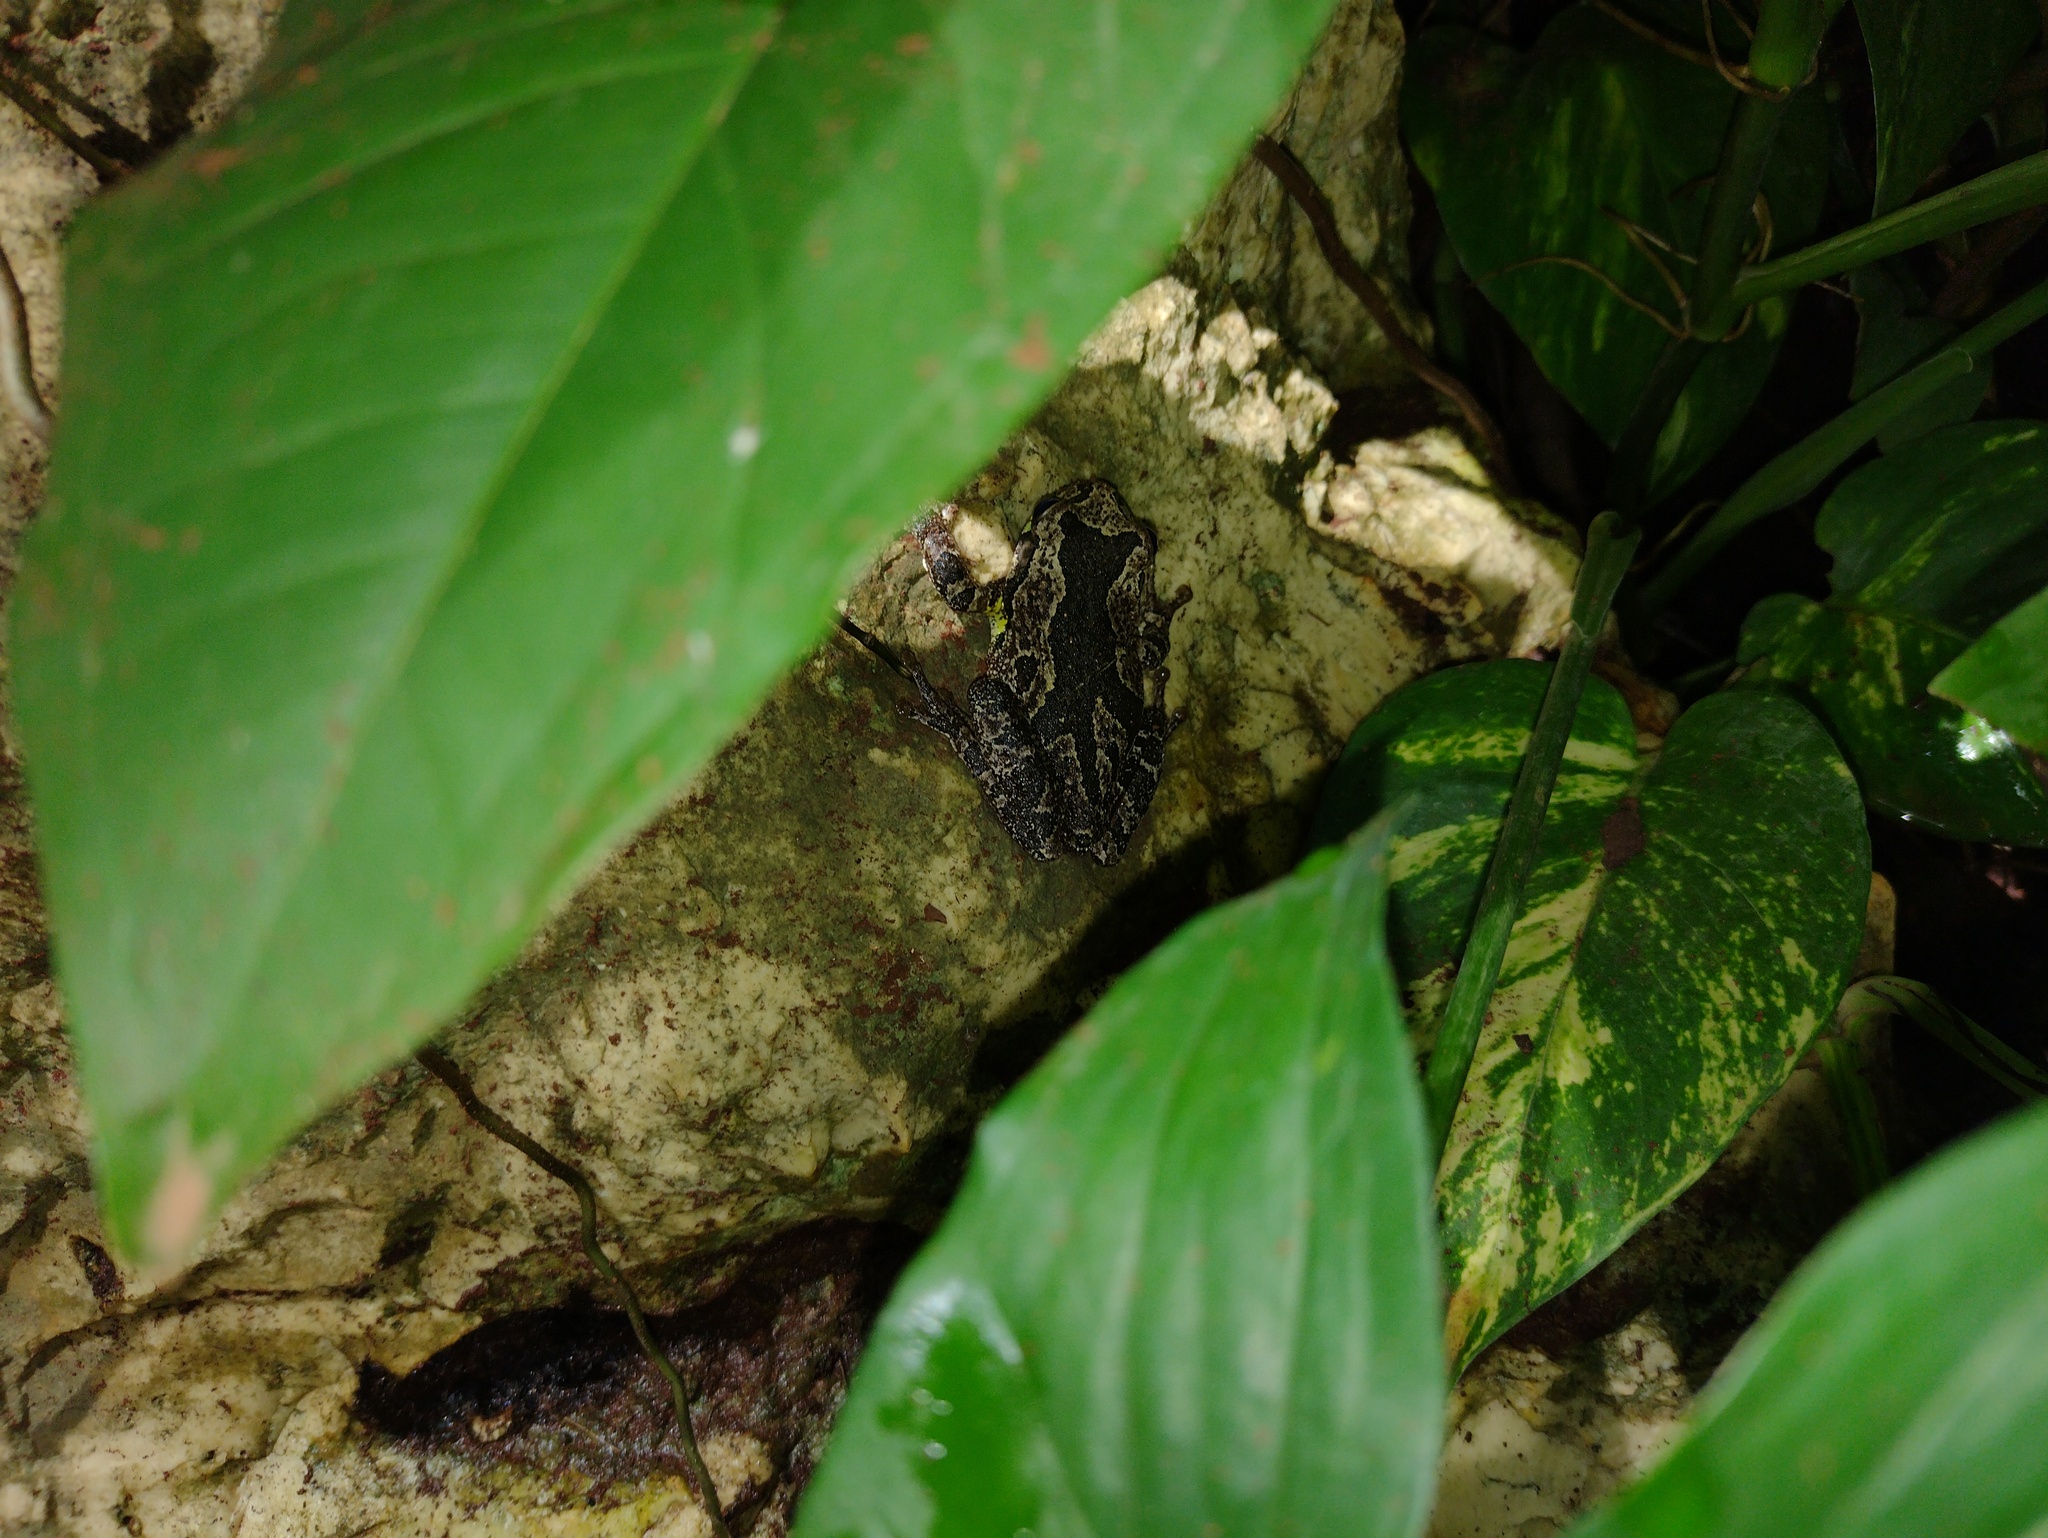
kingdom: Animalia
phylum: Chordata
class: Amphibia
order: Anura
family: Hylidae
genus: Smilisca
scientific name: Smilisca baudinii
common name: Mexican smilisca
